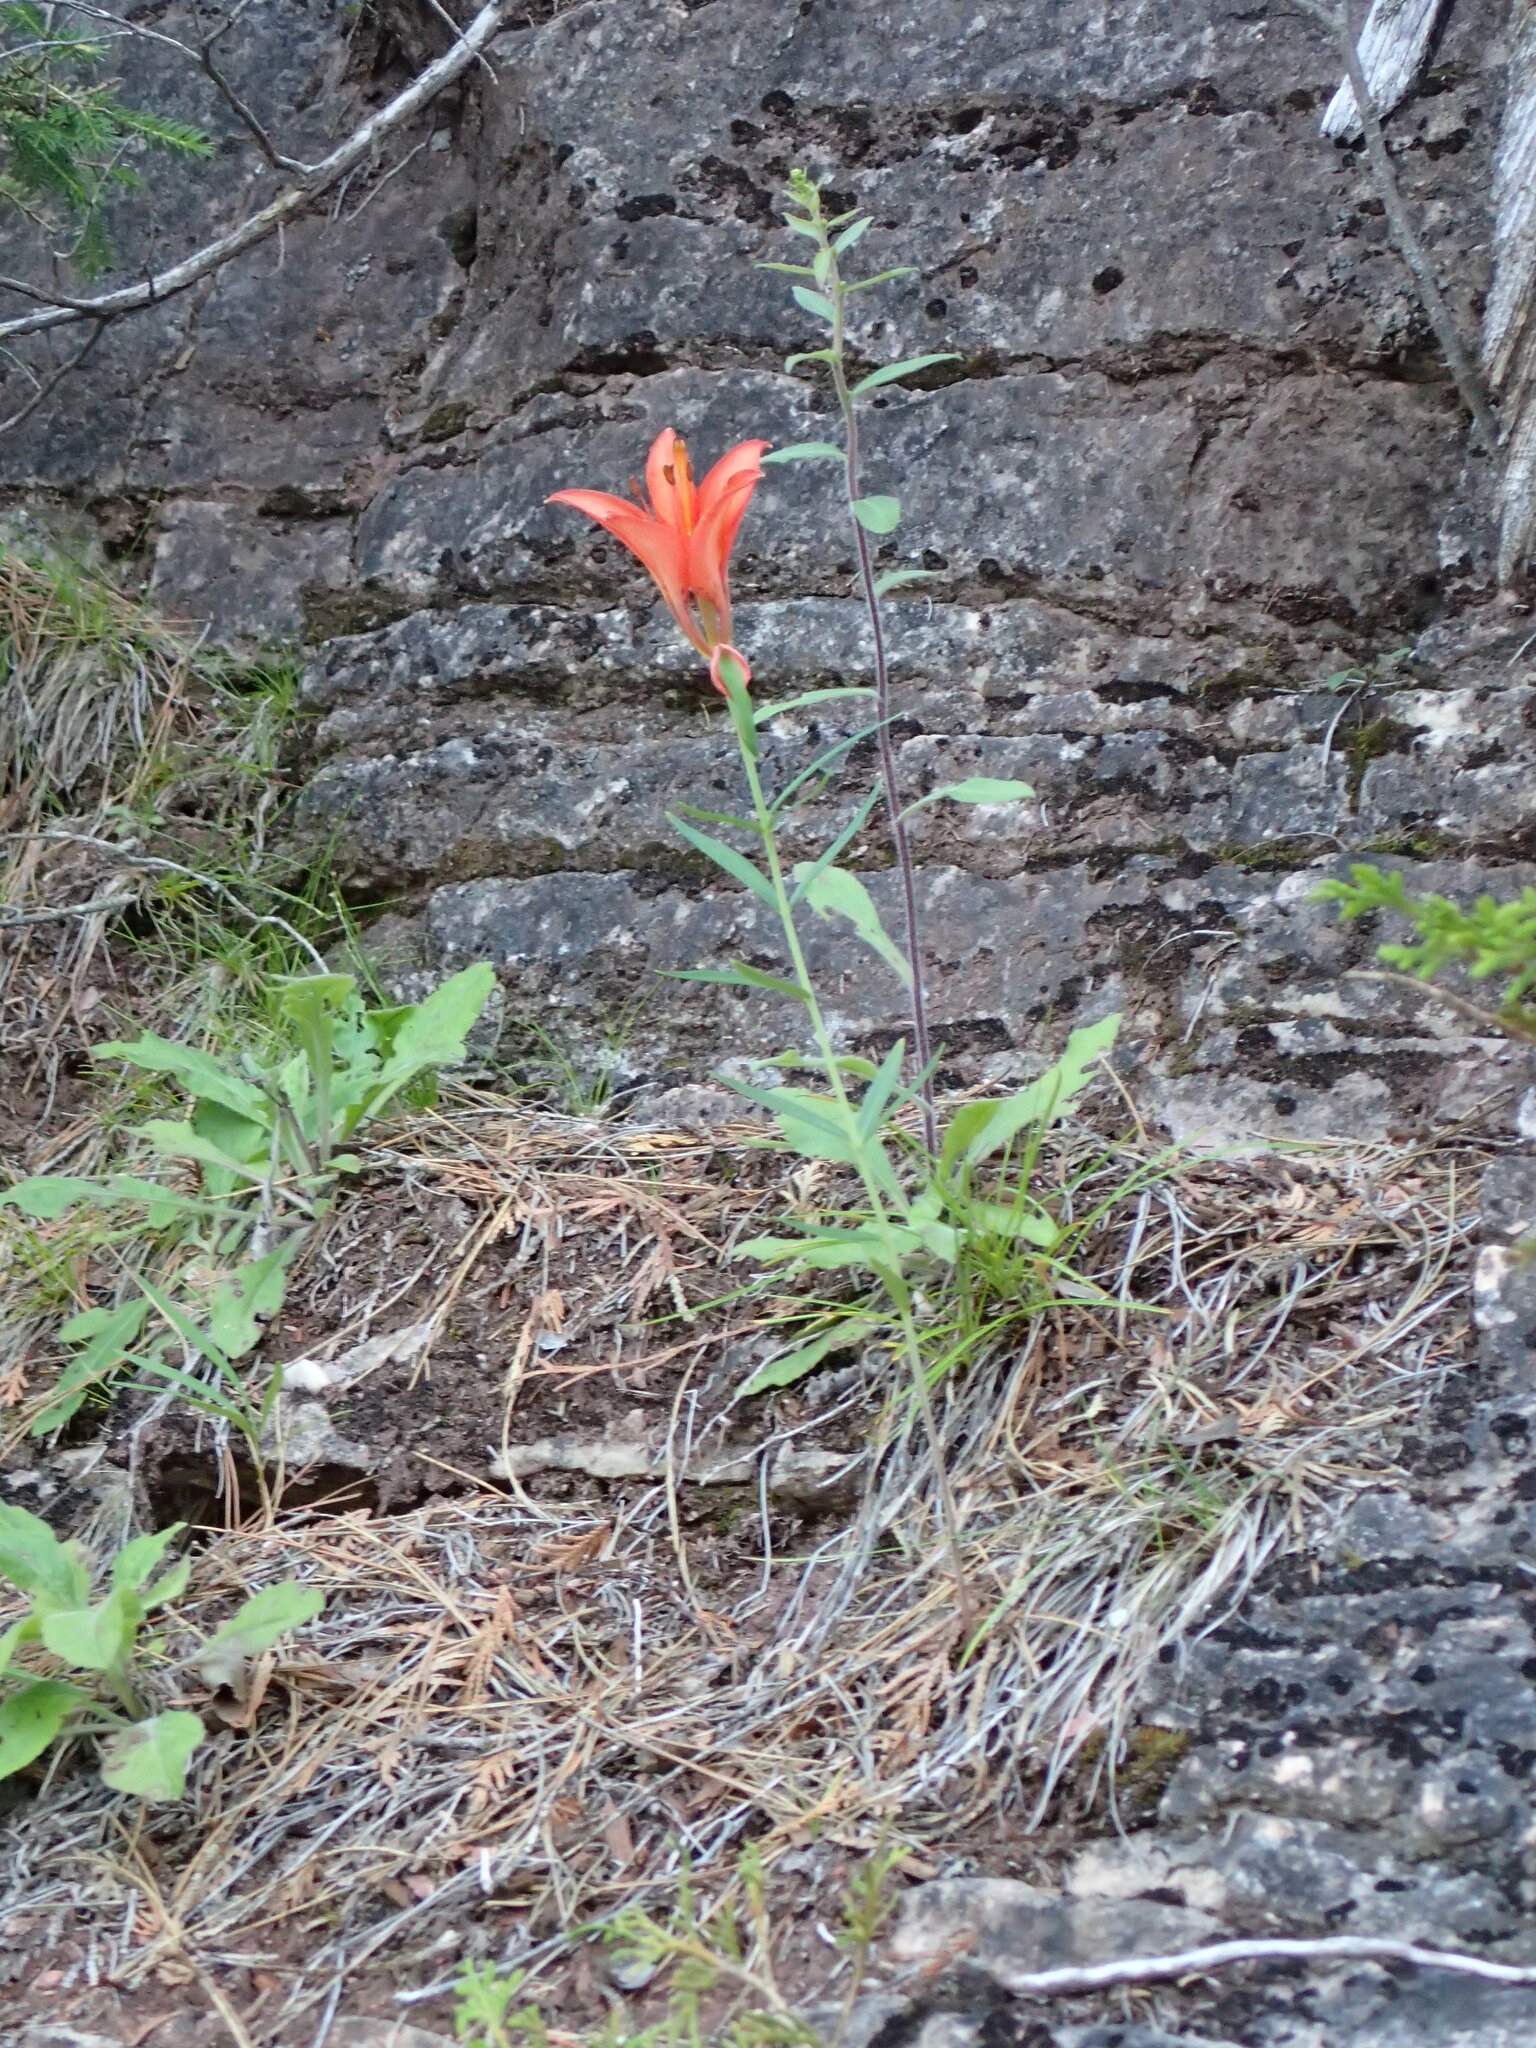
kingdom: Plantae
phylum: Tracheophyta
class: Liliopsida
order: Liliales
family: Liliaceae
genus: Lilium
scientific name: Lilium philadelphicum
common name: Red lily
